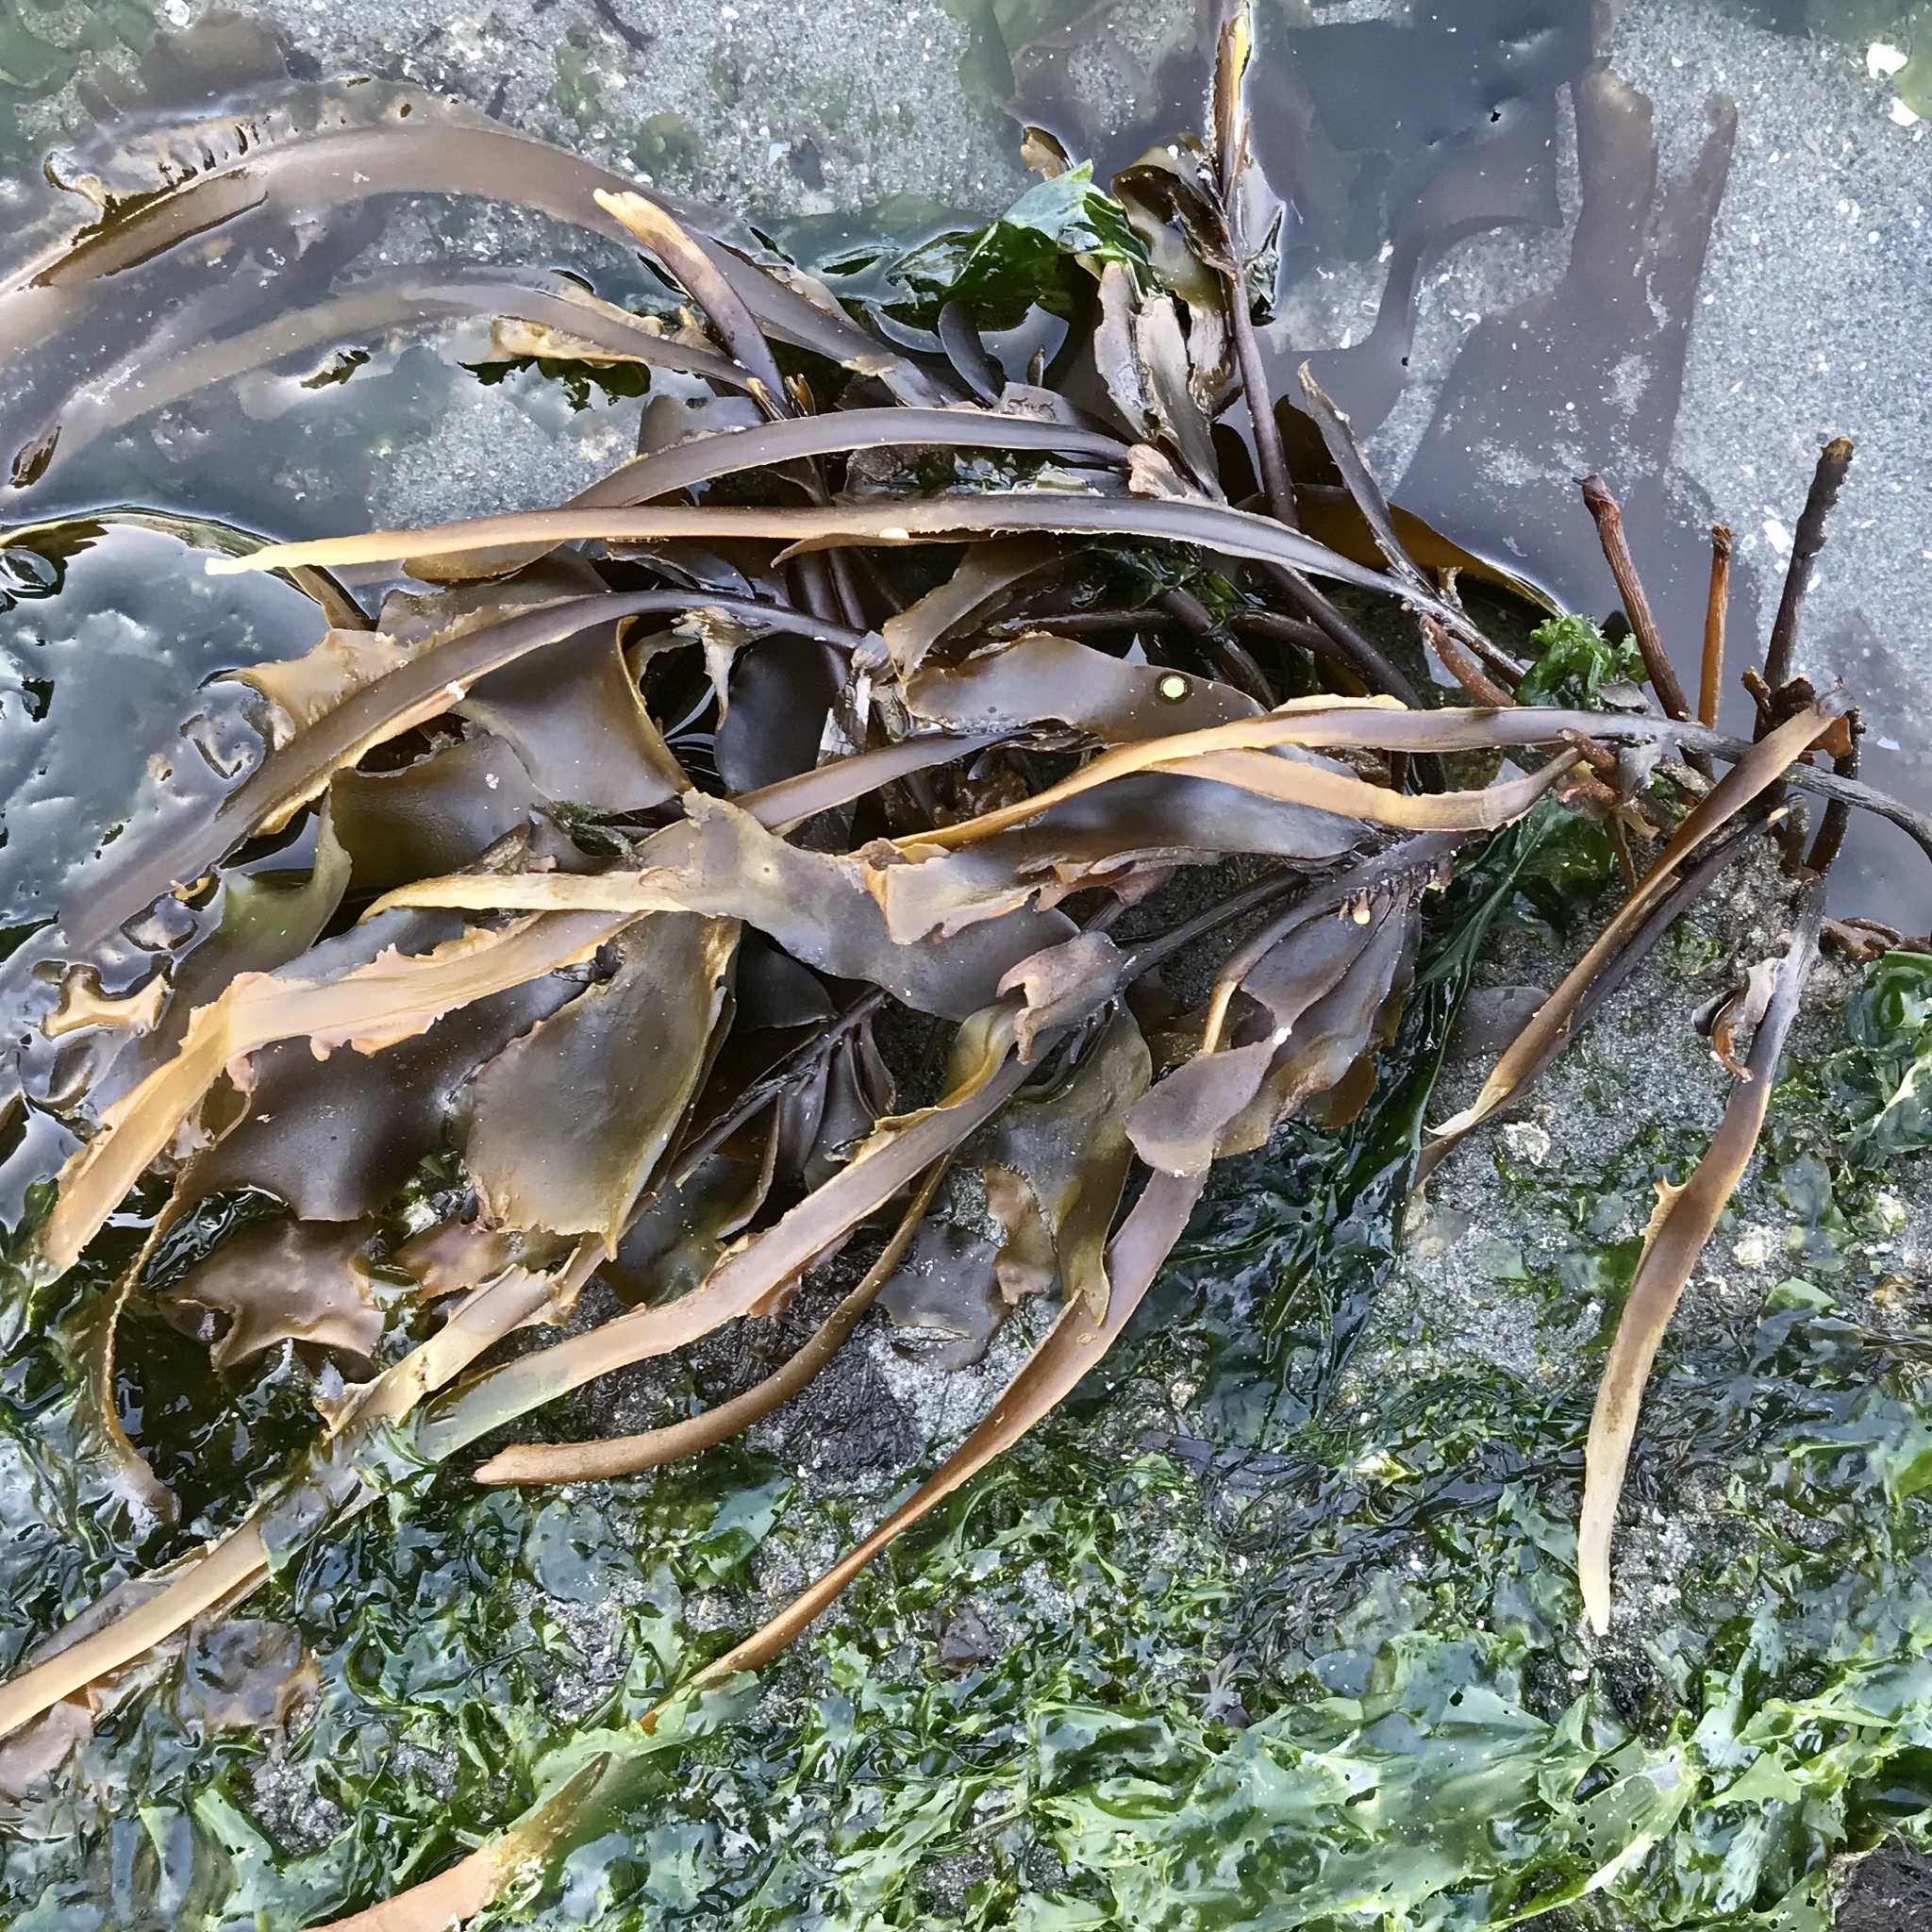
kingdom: Chromista
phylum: Ochrophyta
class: Phaeophyceae
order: Laminariales
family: Alariaceae
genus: Alaria
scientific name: Alaria marginata
